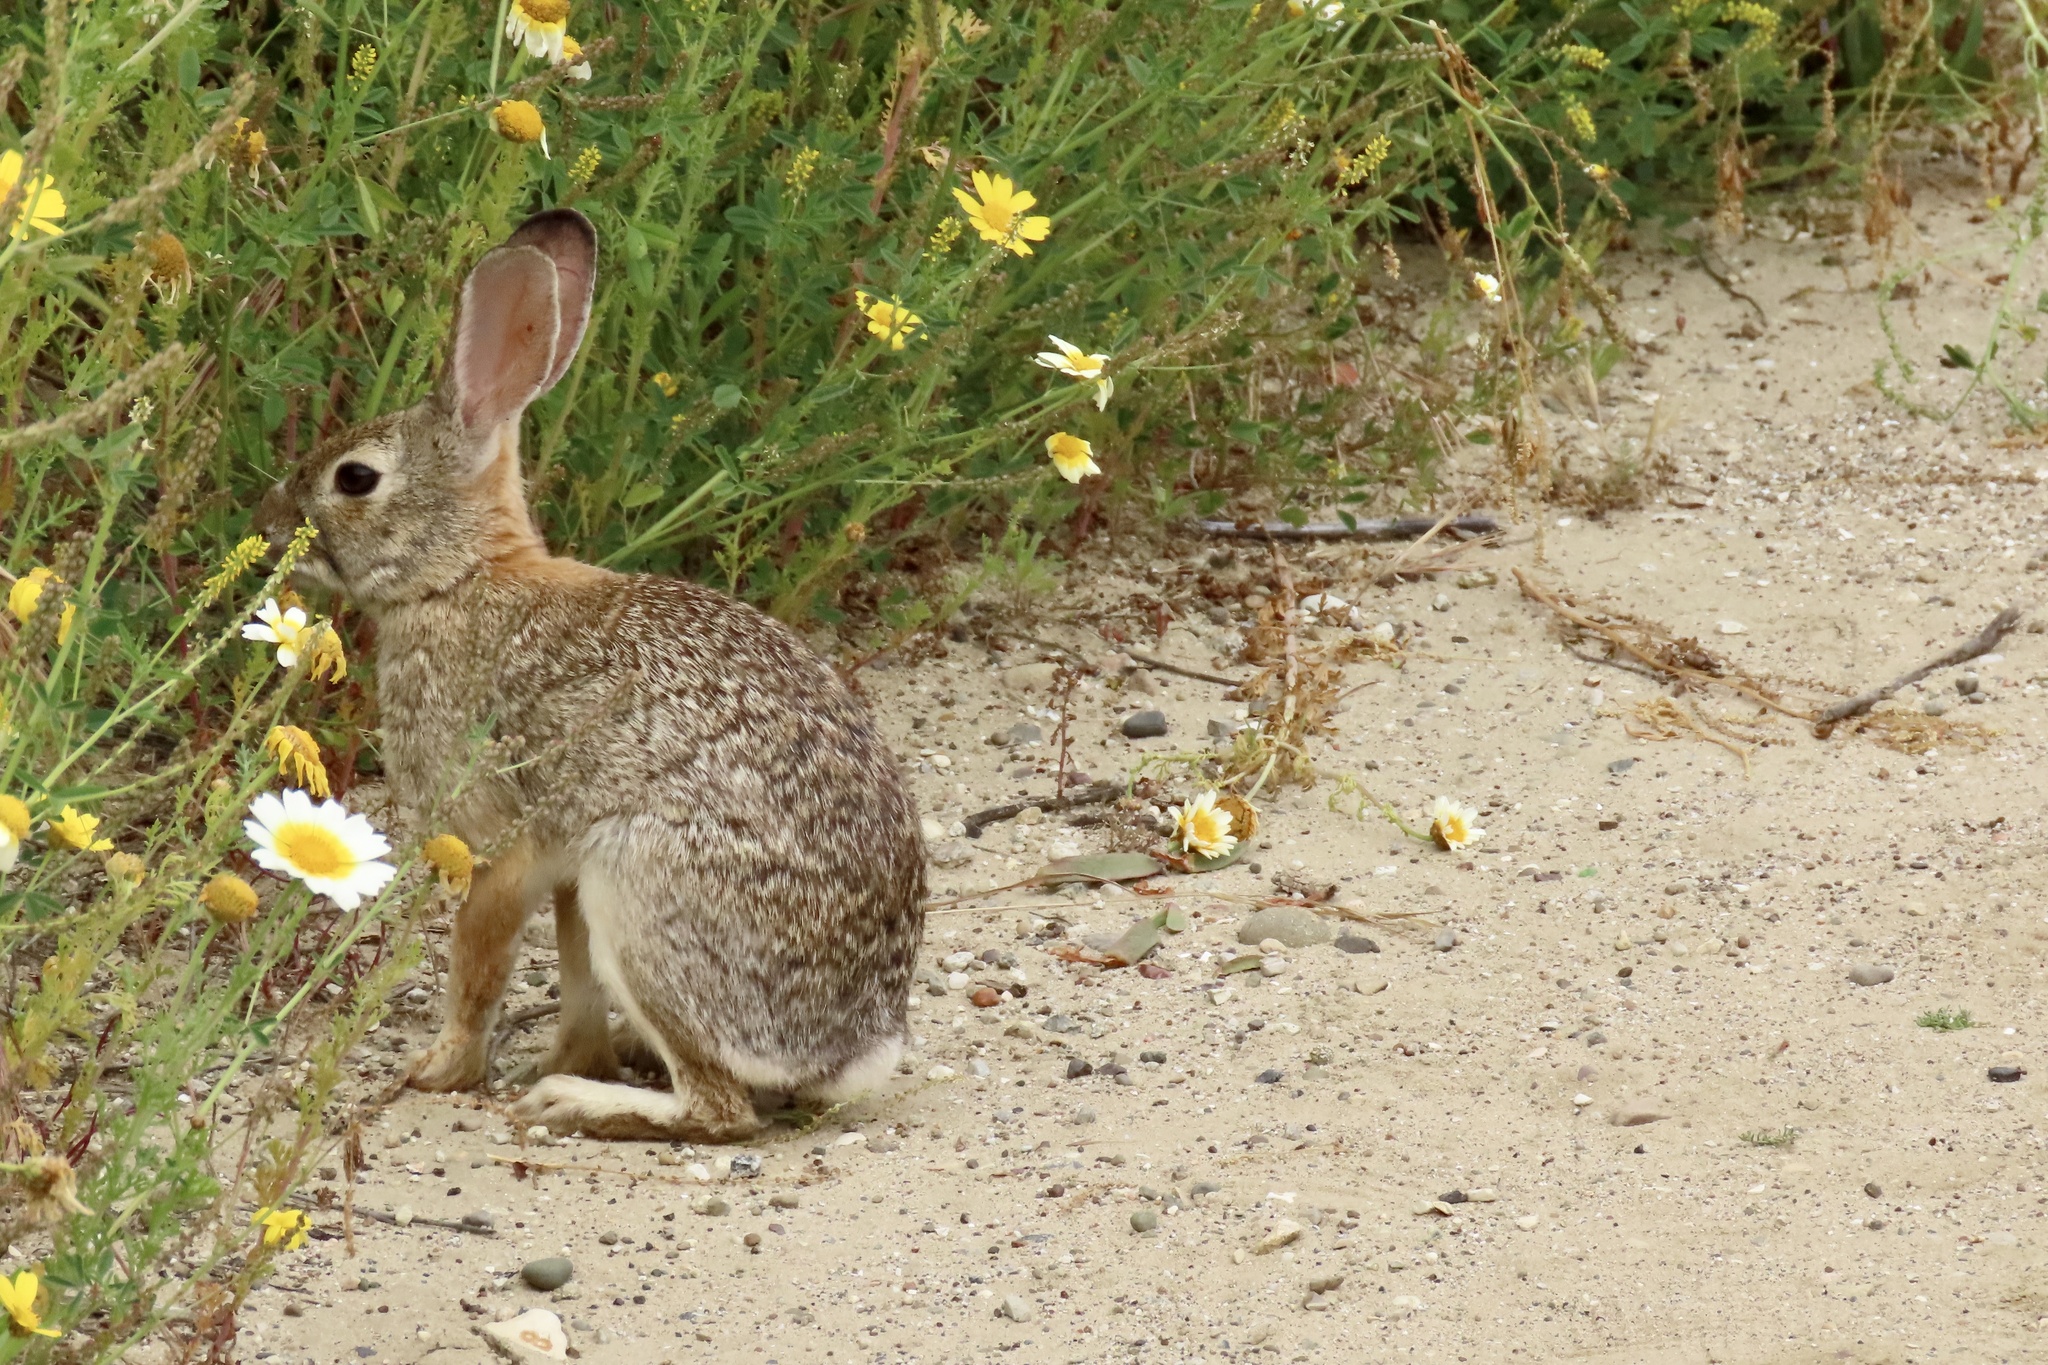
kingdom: Animalia
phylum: Chordata
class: Mammalia
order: Lagomorpha
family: Leporidae
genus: Sylvilagus
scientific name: Sylvilagus audubonii
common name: Desert cottontail
